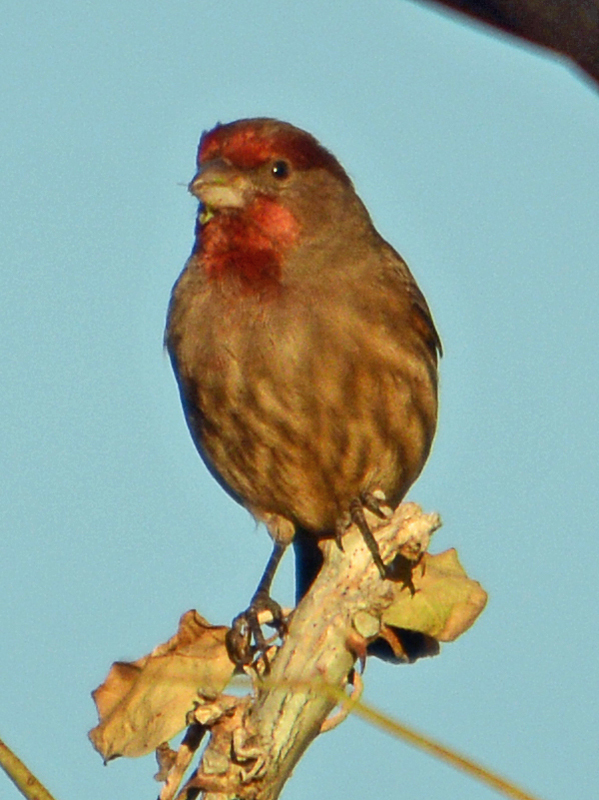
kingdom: Animalia
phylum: Chordata
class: Aves
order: Passeriformes
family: Fringillidae
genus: Haemorhous
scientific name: Haemorhous mexicanus
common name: House finch
